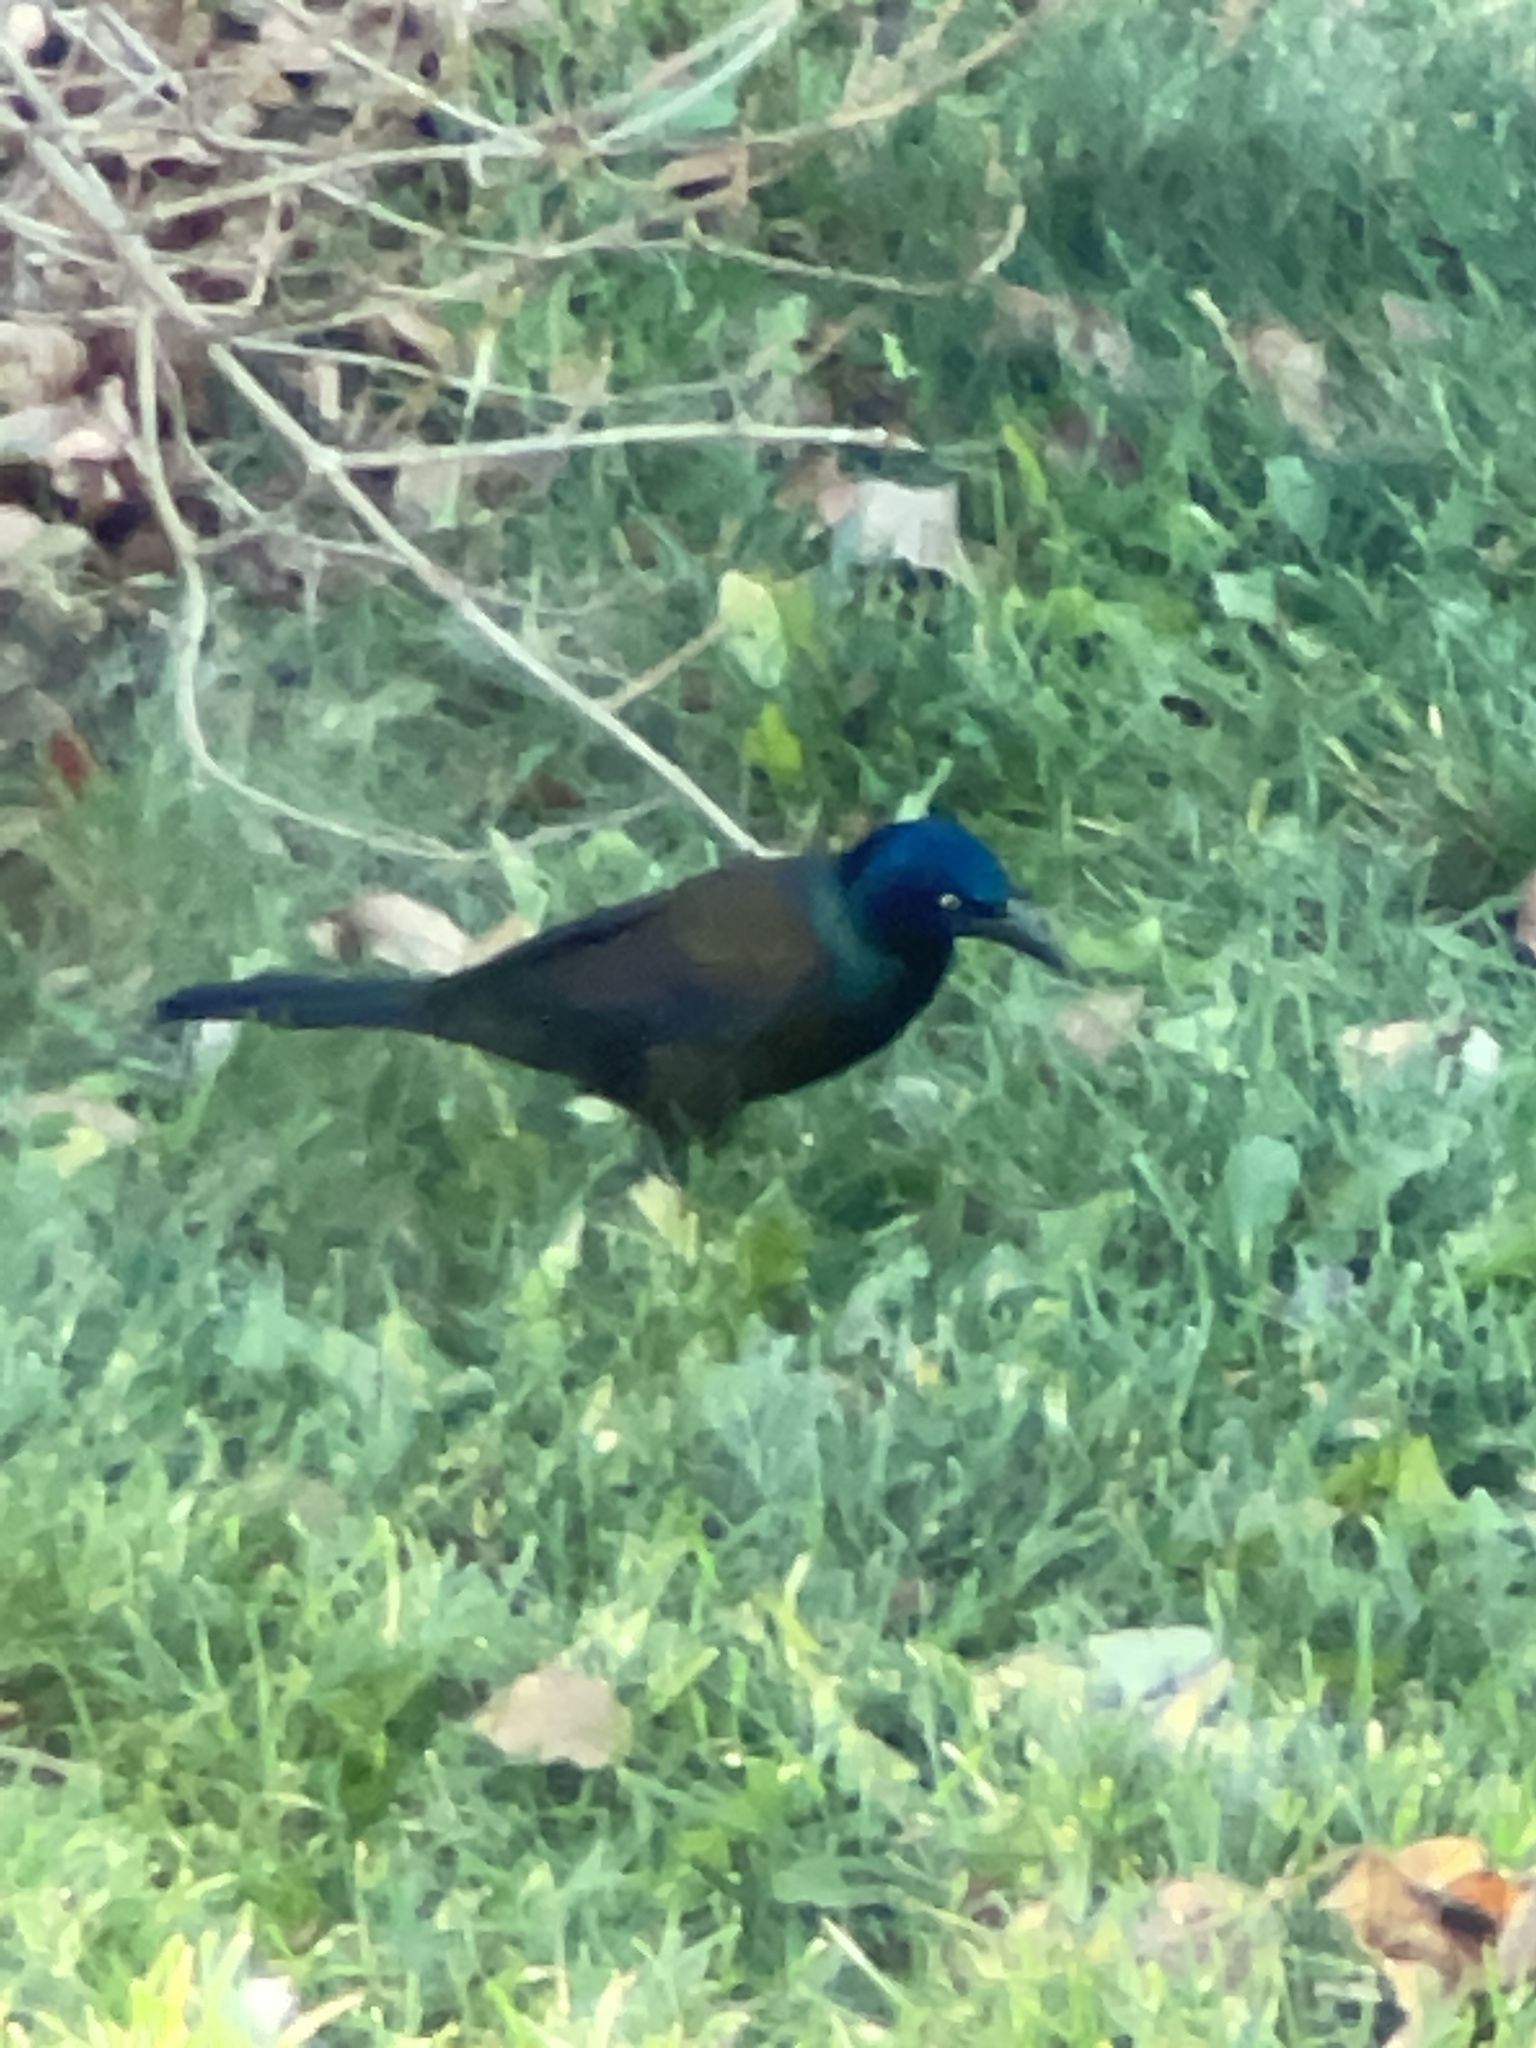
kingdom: Animalia
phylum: Chordata
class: Aves
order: Passeriformes
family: Icteridae
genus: Quiscalus
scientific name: Quiscalus quiscula
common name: Common grackle
